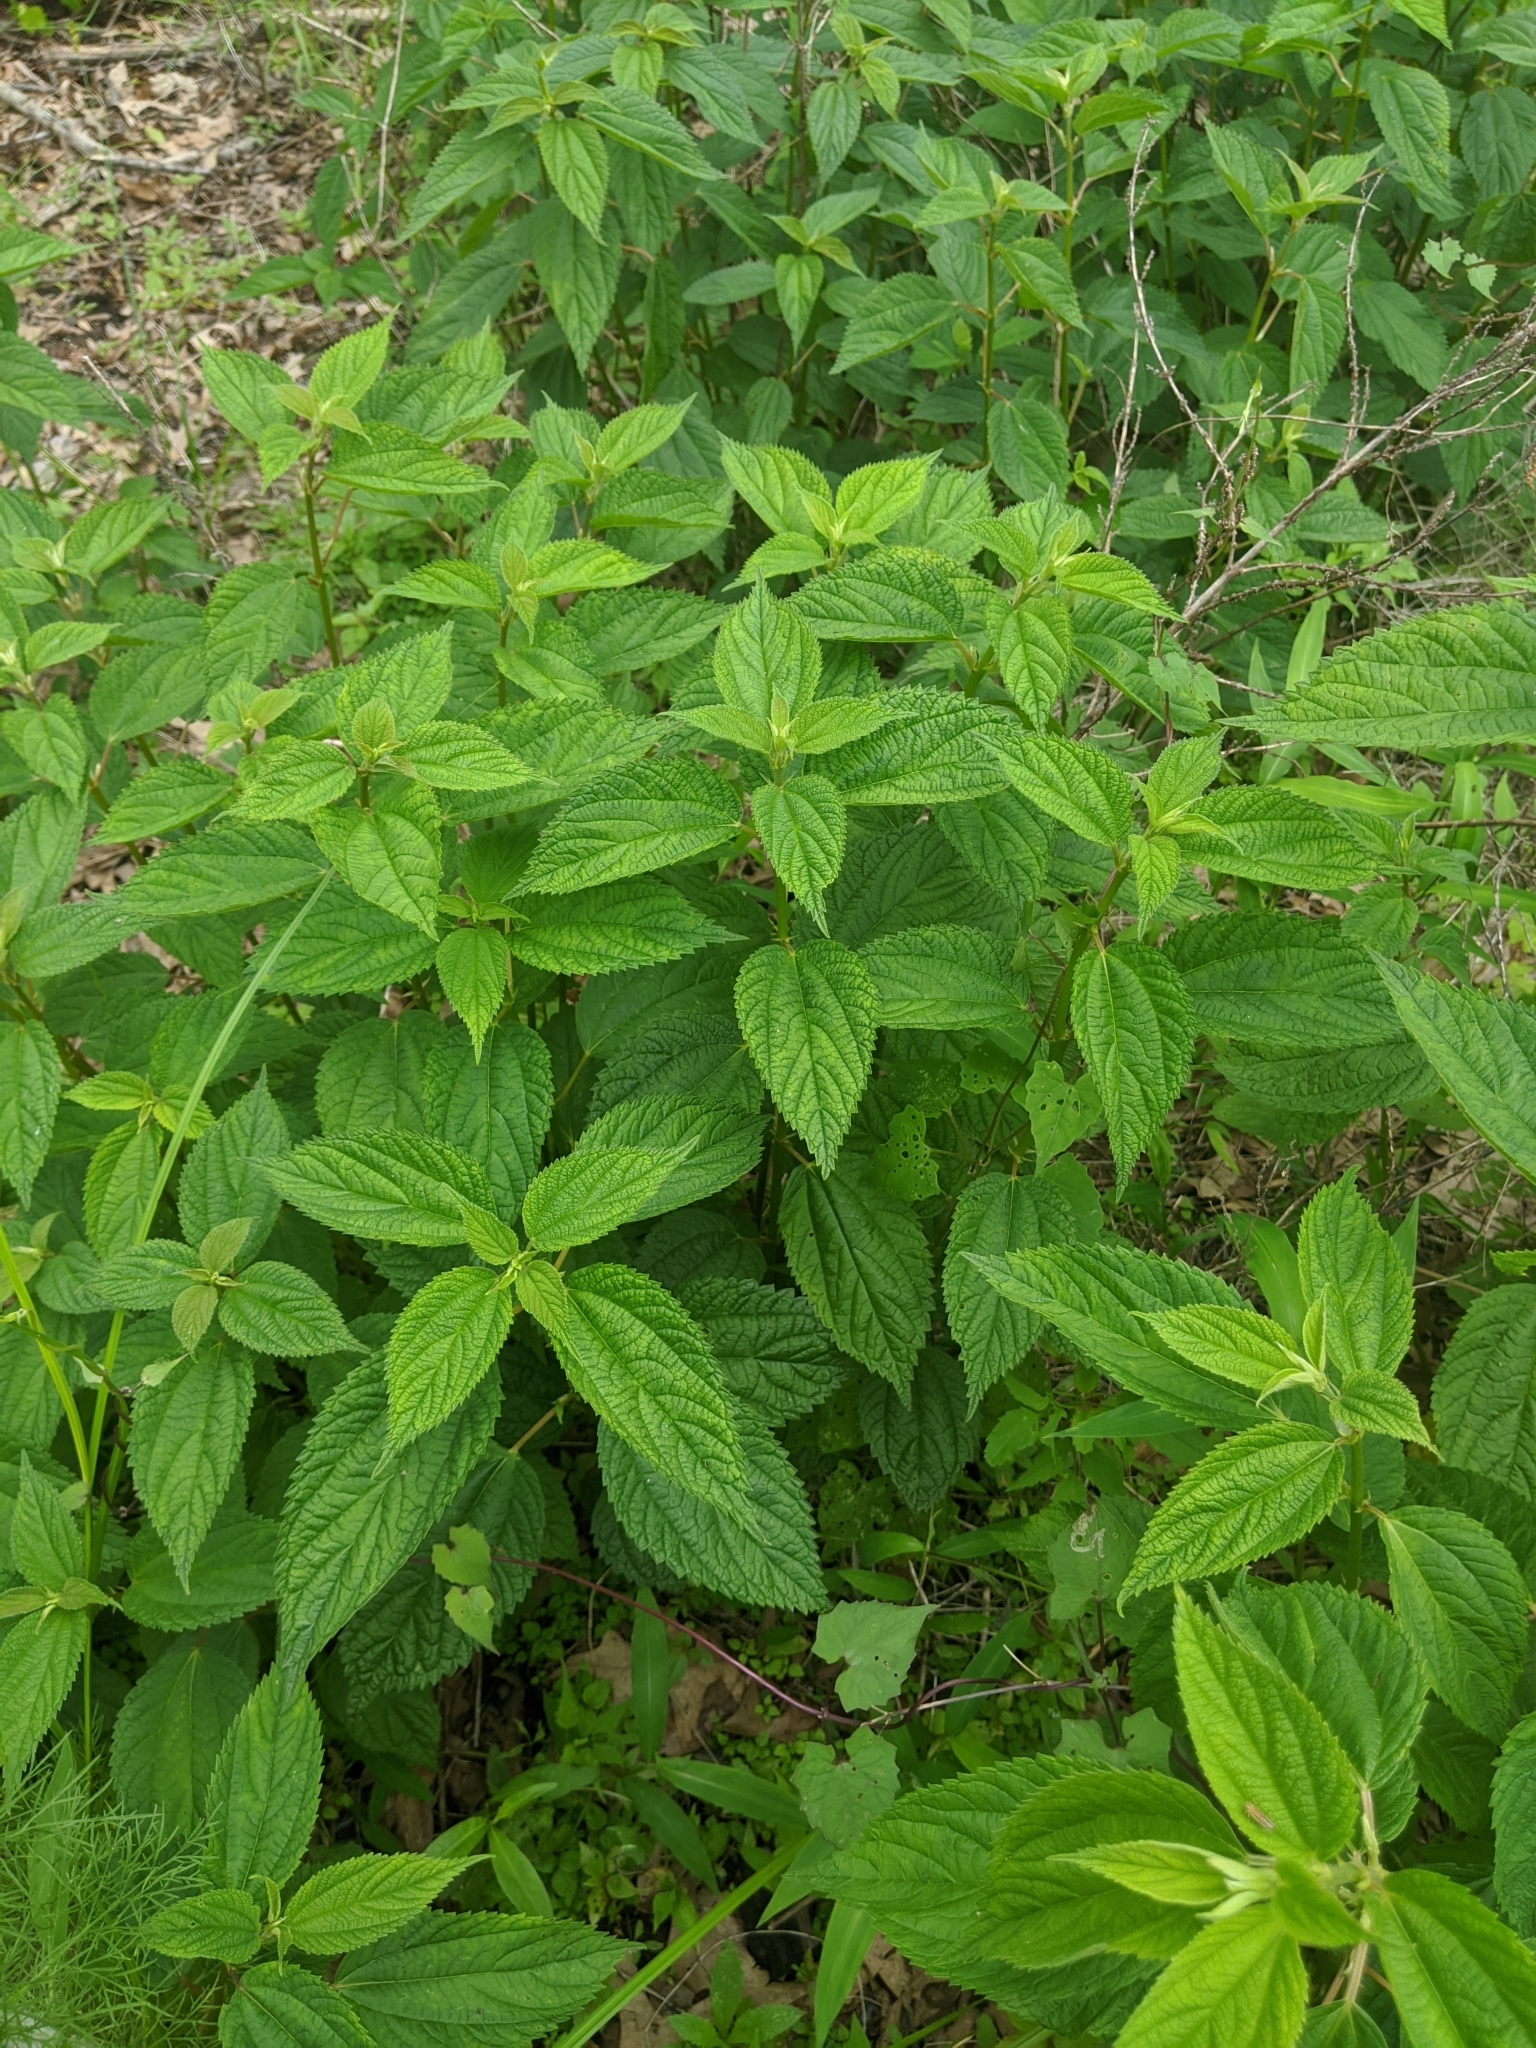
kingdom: Plantae
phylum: Tracheophyta
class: Magnoliopsida
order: Rosales
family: Urticaceae
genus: Boehmeria
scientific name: Boehmeria cylindrica
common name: Bog-hemp
